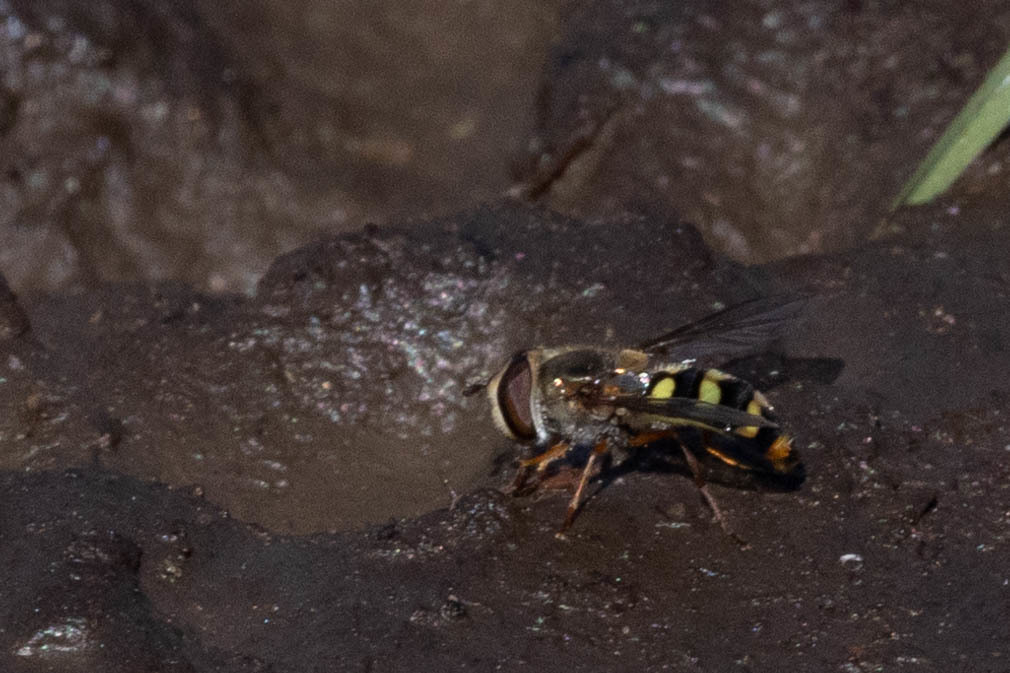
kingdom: Animalia
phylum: Arthropoda
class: Insecta
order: Diptera
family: Syrphidae
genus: Eupeodes
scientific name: Eupeodes fumipennis
